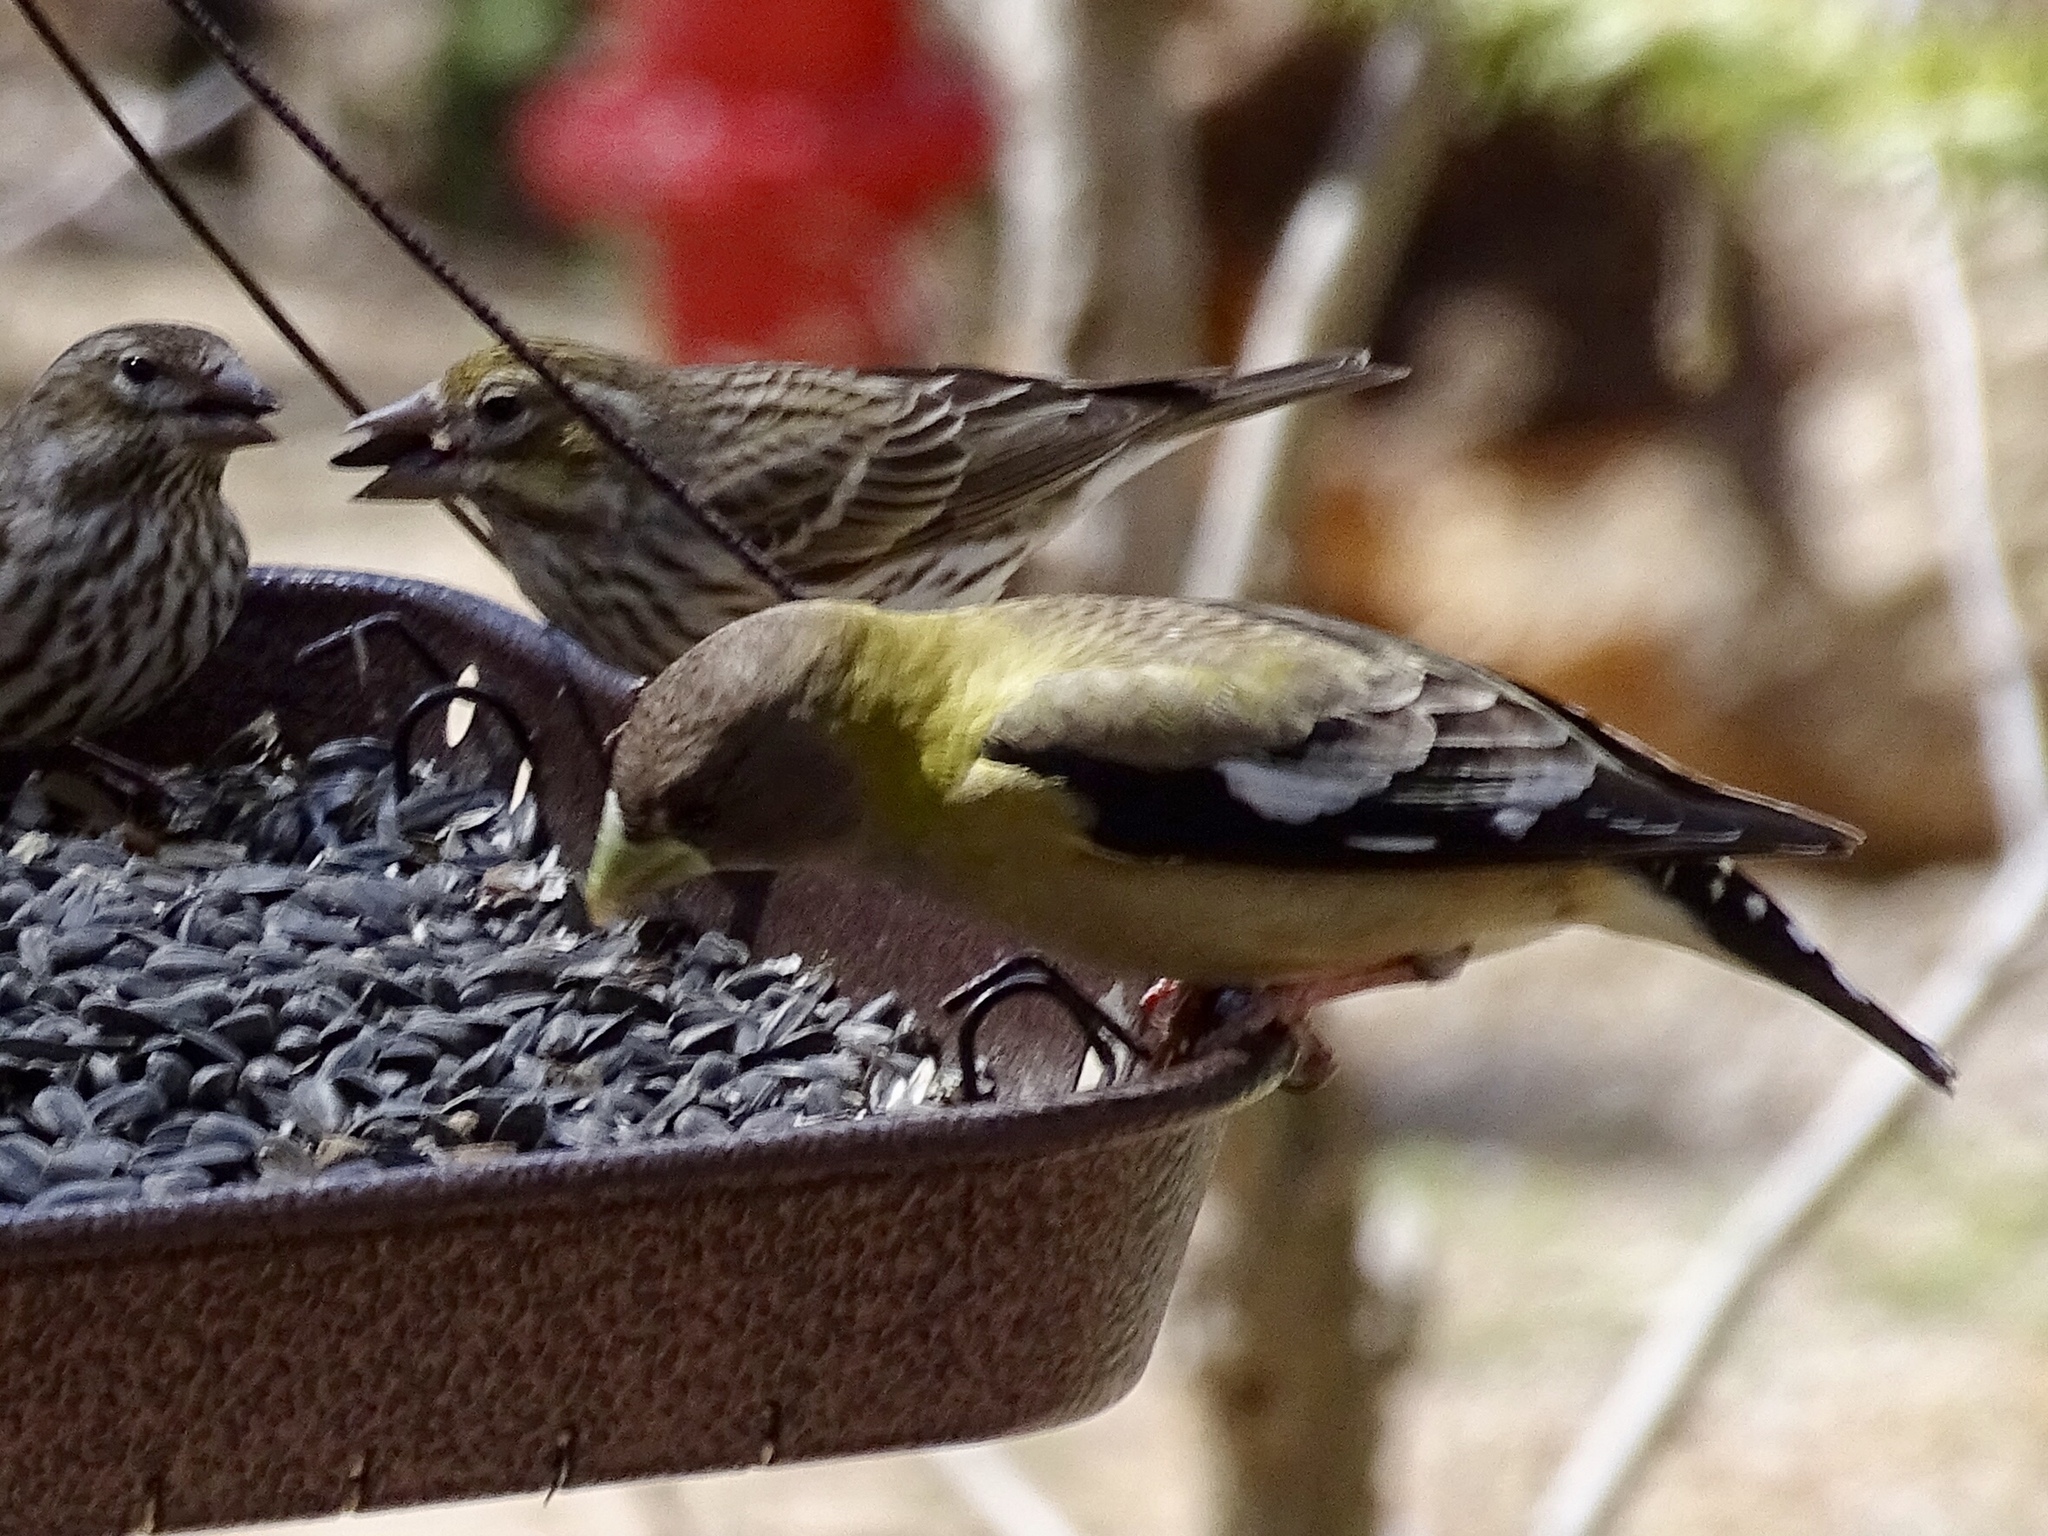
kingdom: Animalia
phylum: Chordata
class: Aves
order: Passeriformes
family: Fringillidae
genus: Hesperiphona
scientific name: Hesperiphona vespertina
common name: Evening grosbeak
